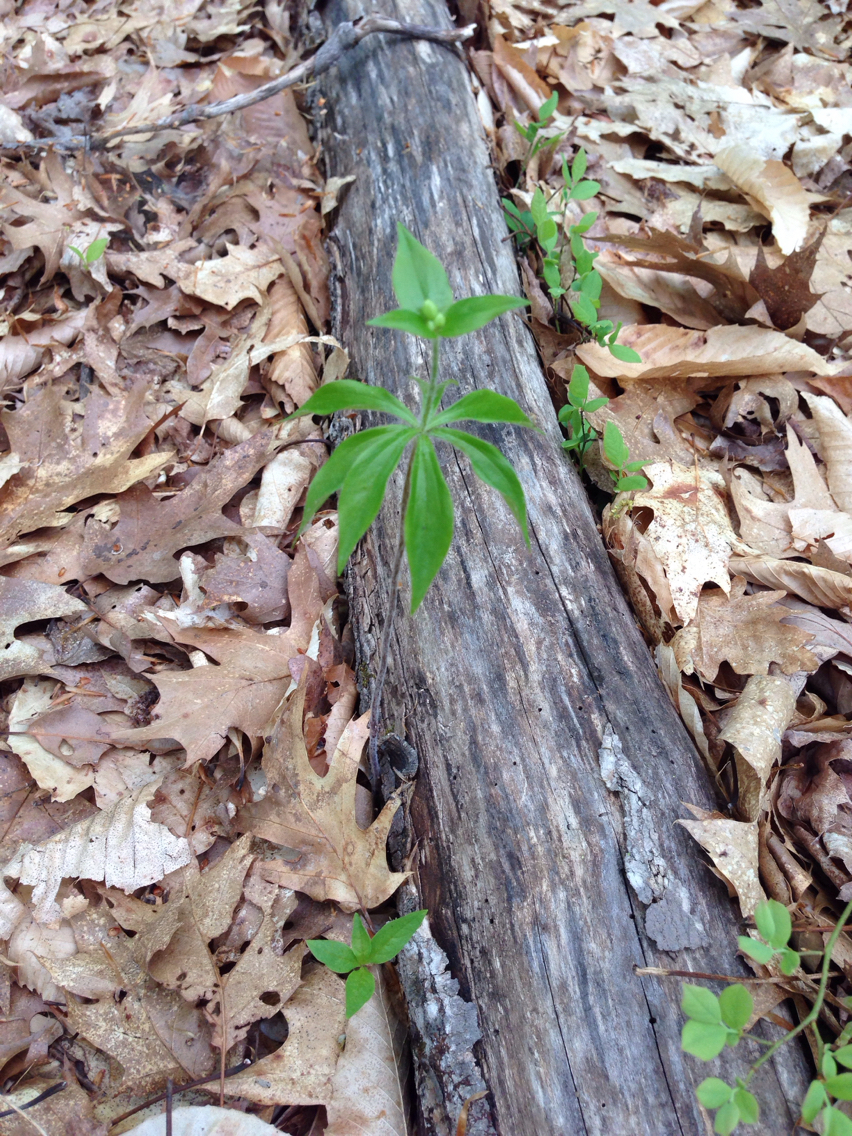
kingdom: Plantae
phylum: Tracheophyta
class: Liliopsida
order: Liliales
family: Liliaceae
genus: Medeola
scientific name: Medeola virginiana
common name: Indian cucumber-root
